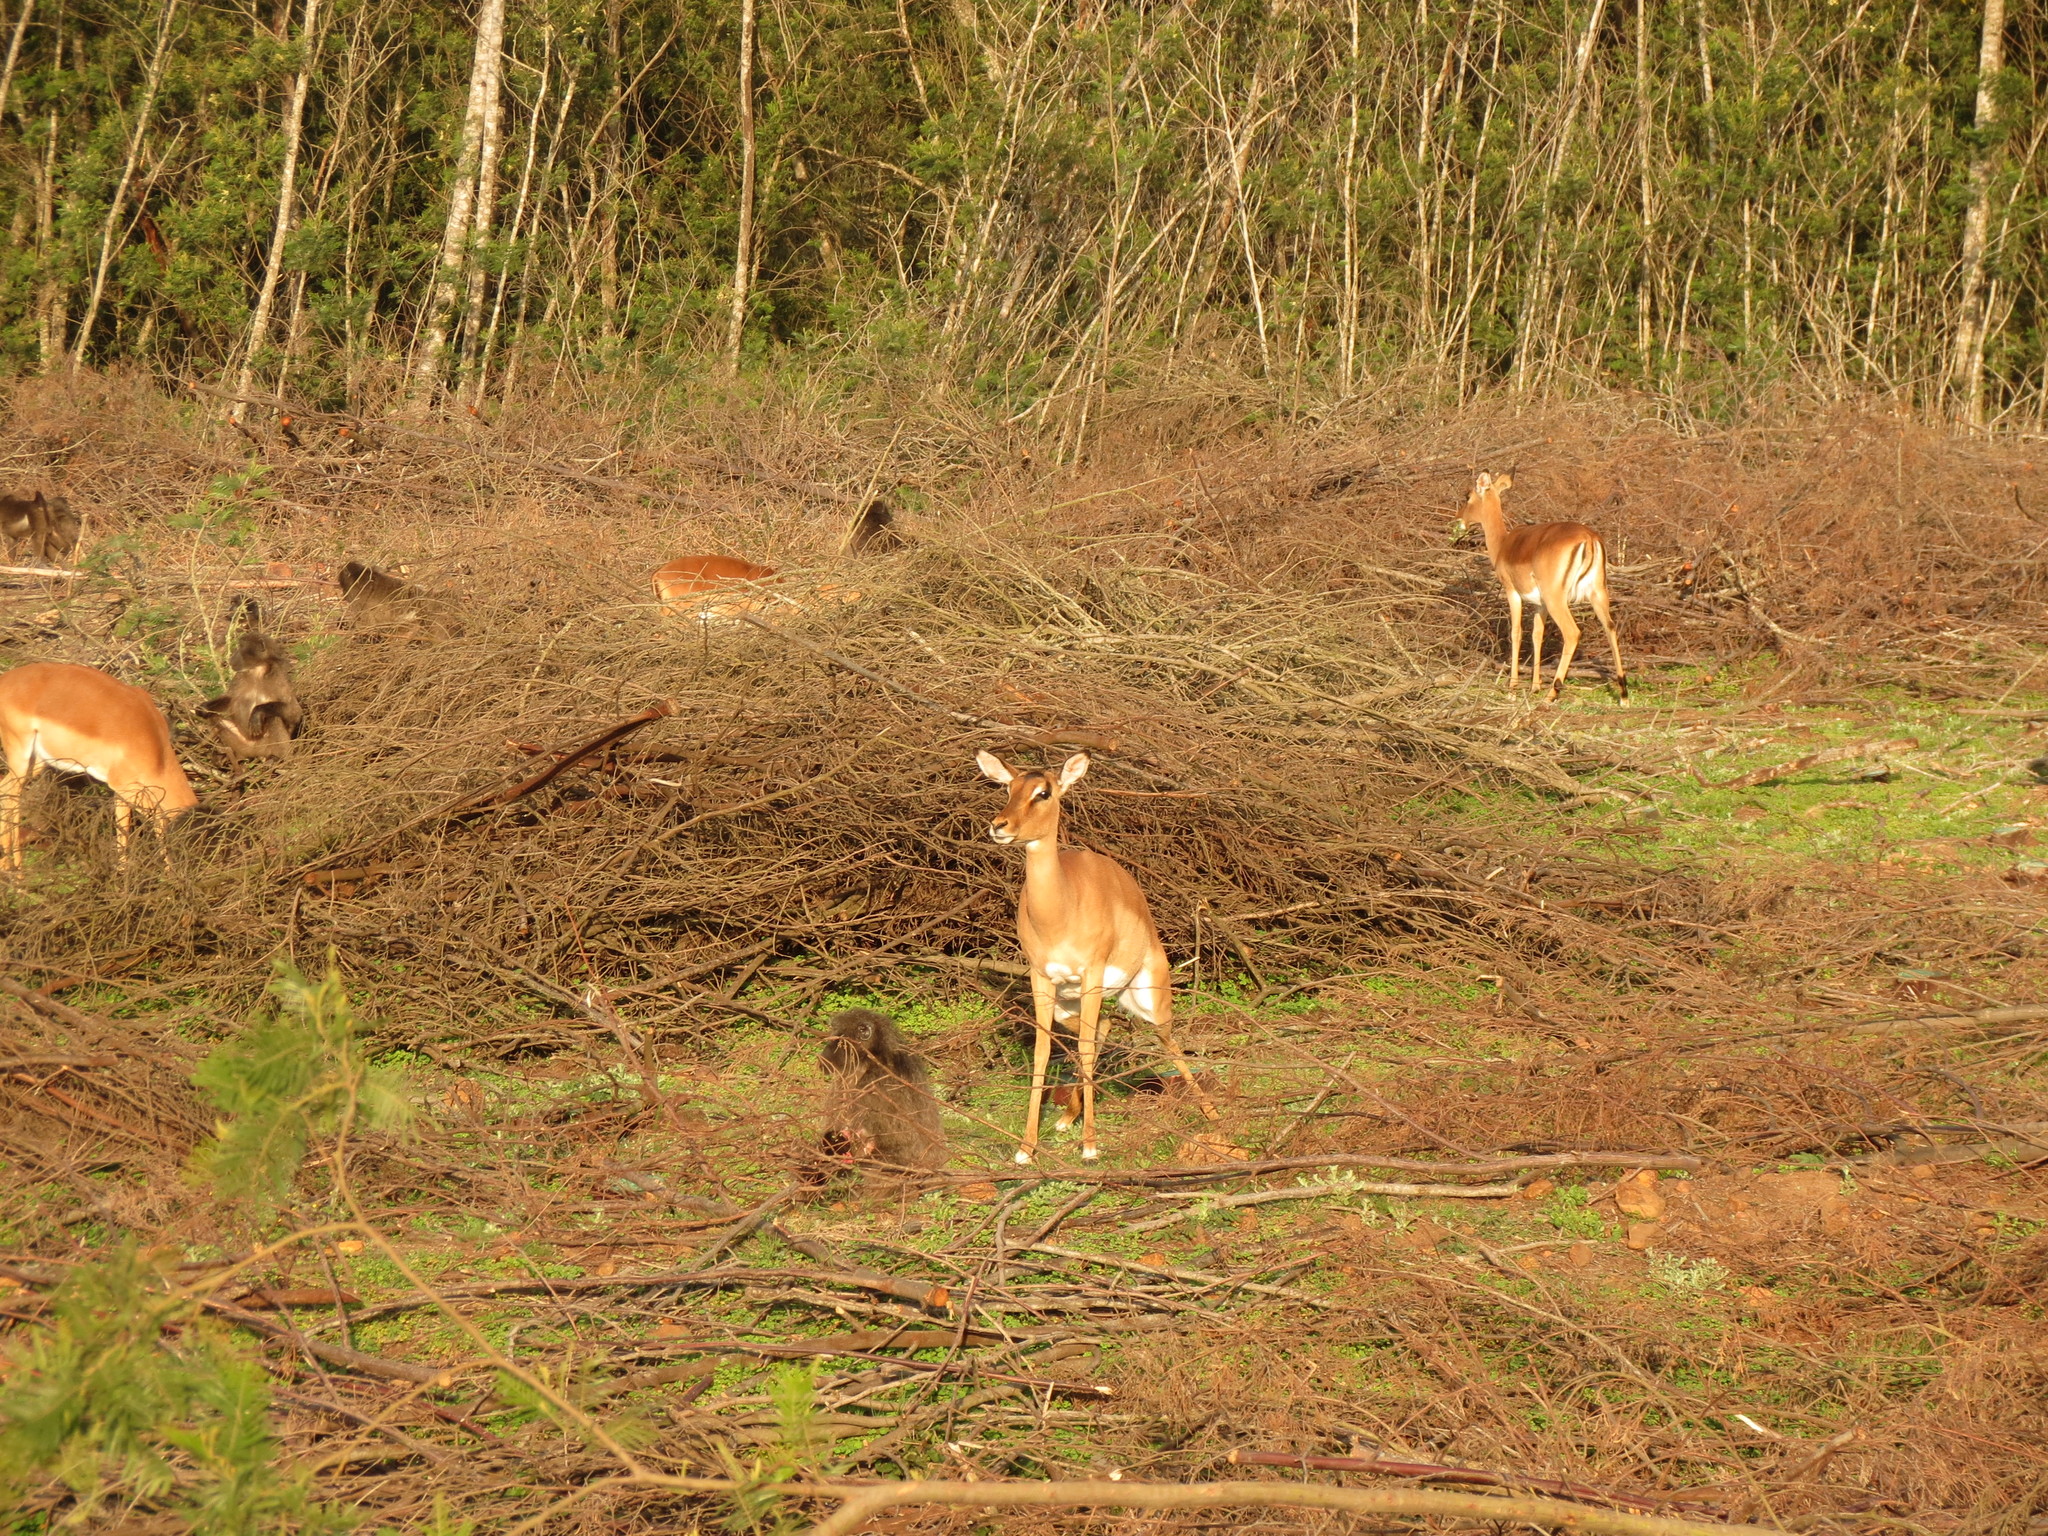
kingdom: Animalia
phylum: Chordata
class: Mammalia
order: Artiodactyla
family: Bovidae
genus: Aepyceros
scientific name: Aepyceros melampus
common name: Impala
